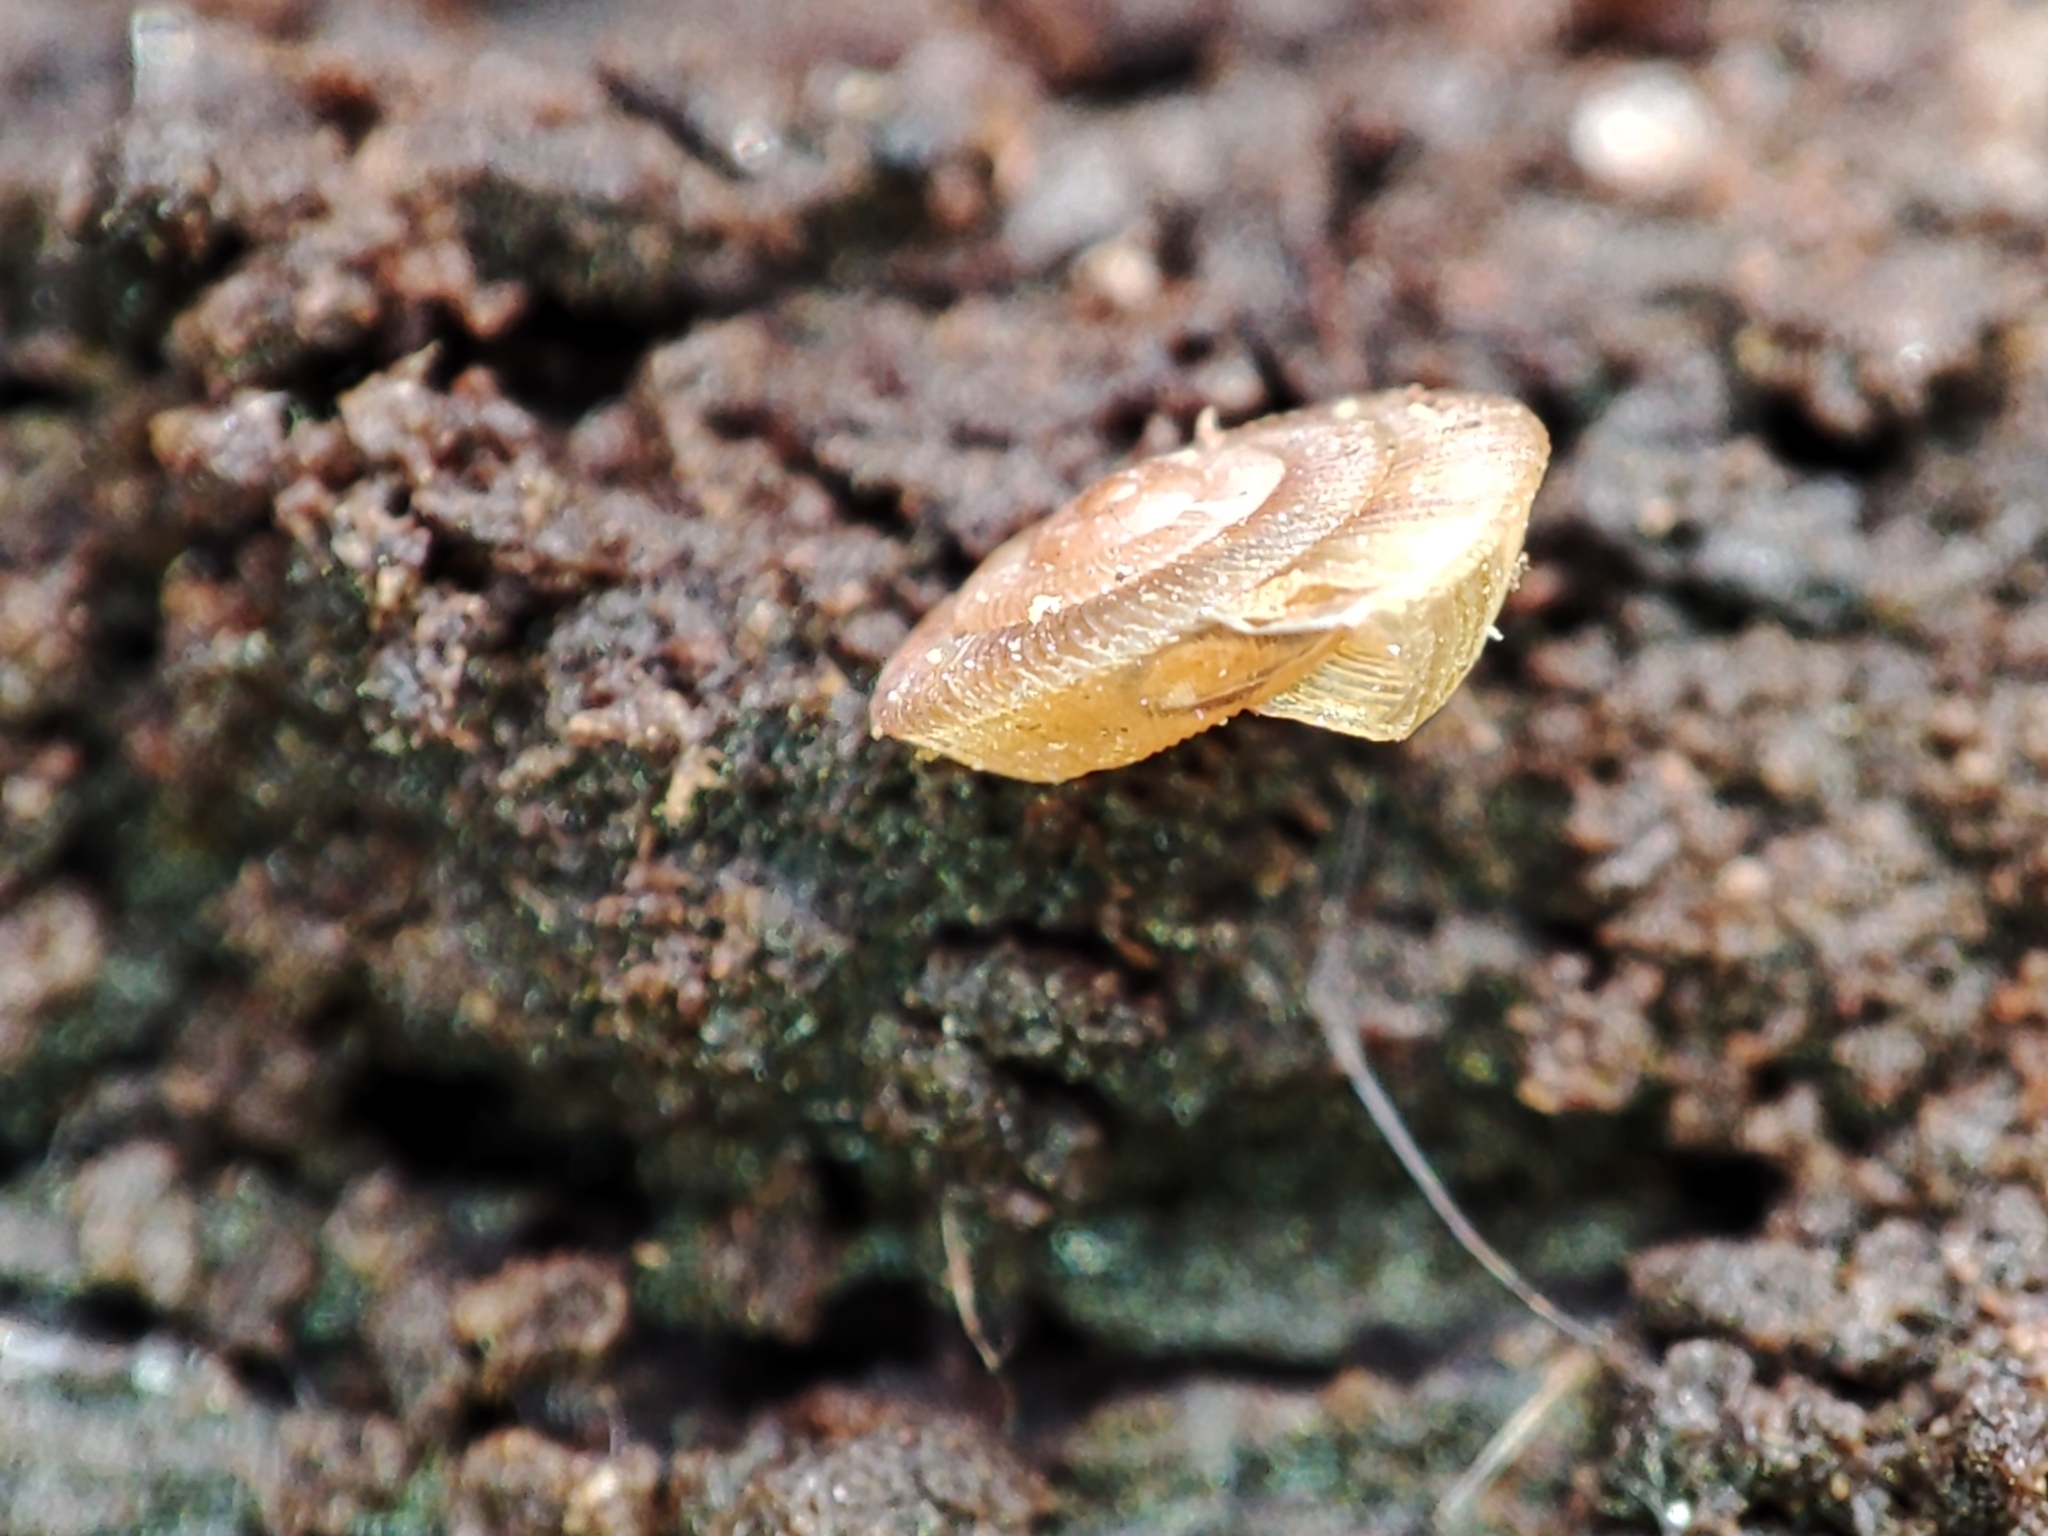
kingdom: Animalia
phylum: Mollusca
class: Gastropoda
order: Stylommatophora
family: Discidae
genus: Discus
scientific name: Discus
